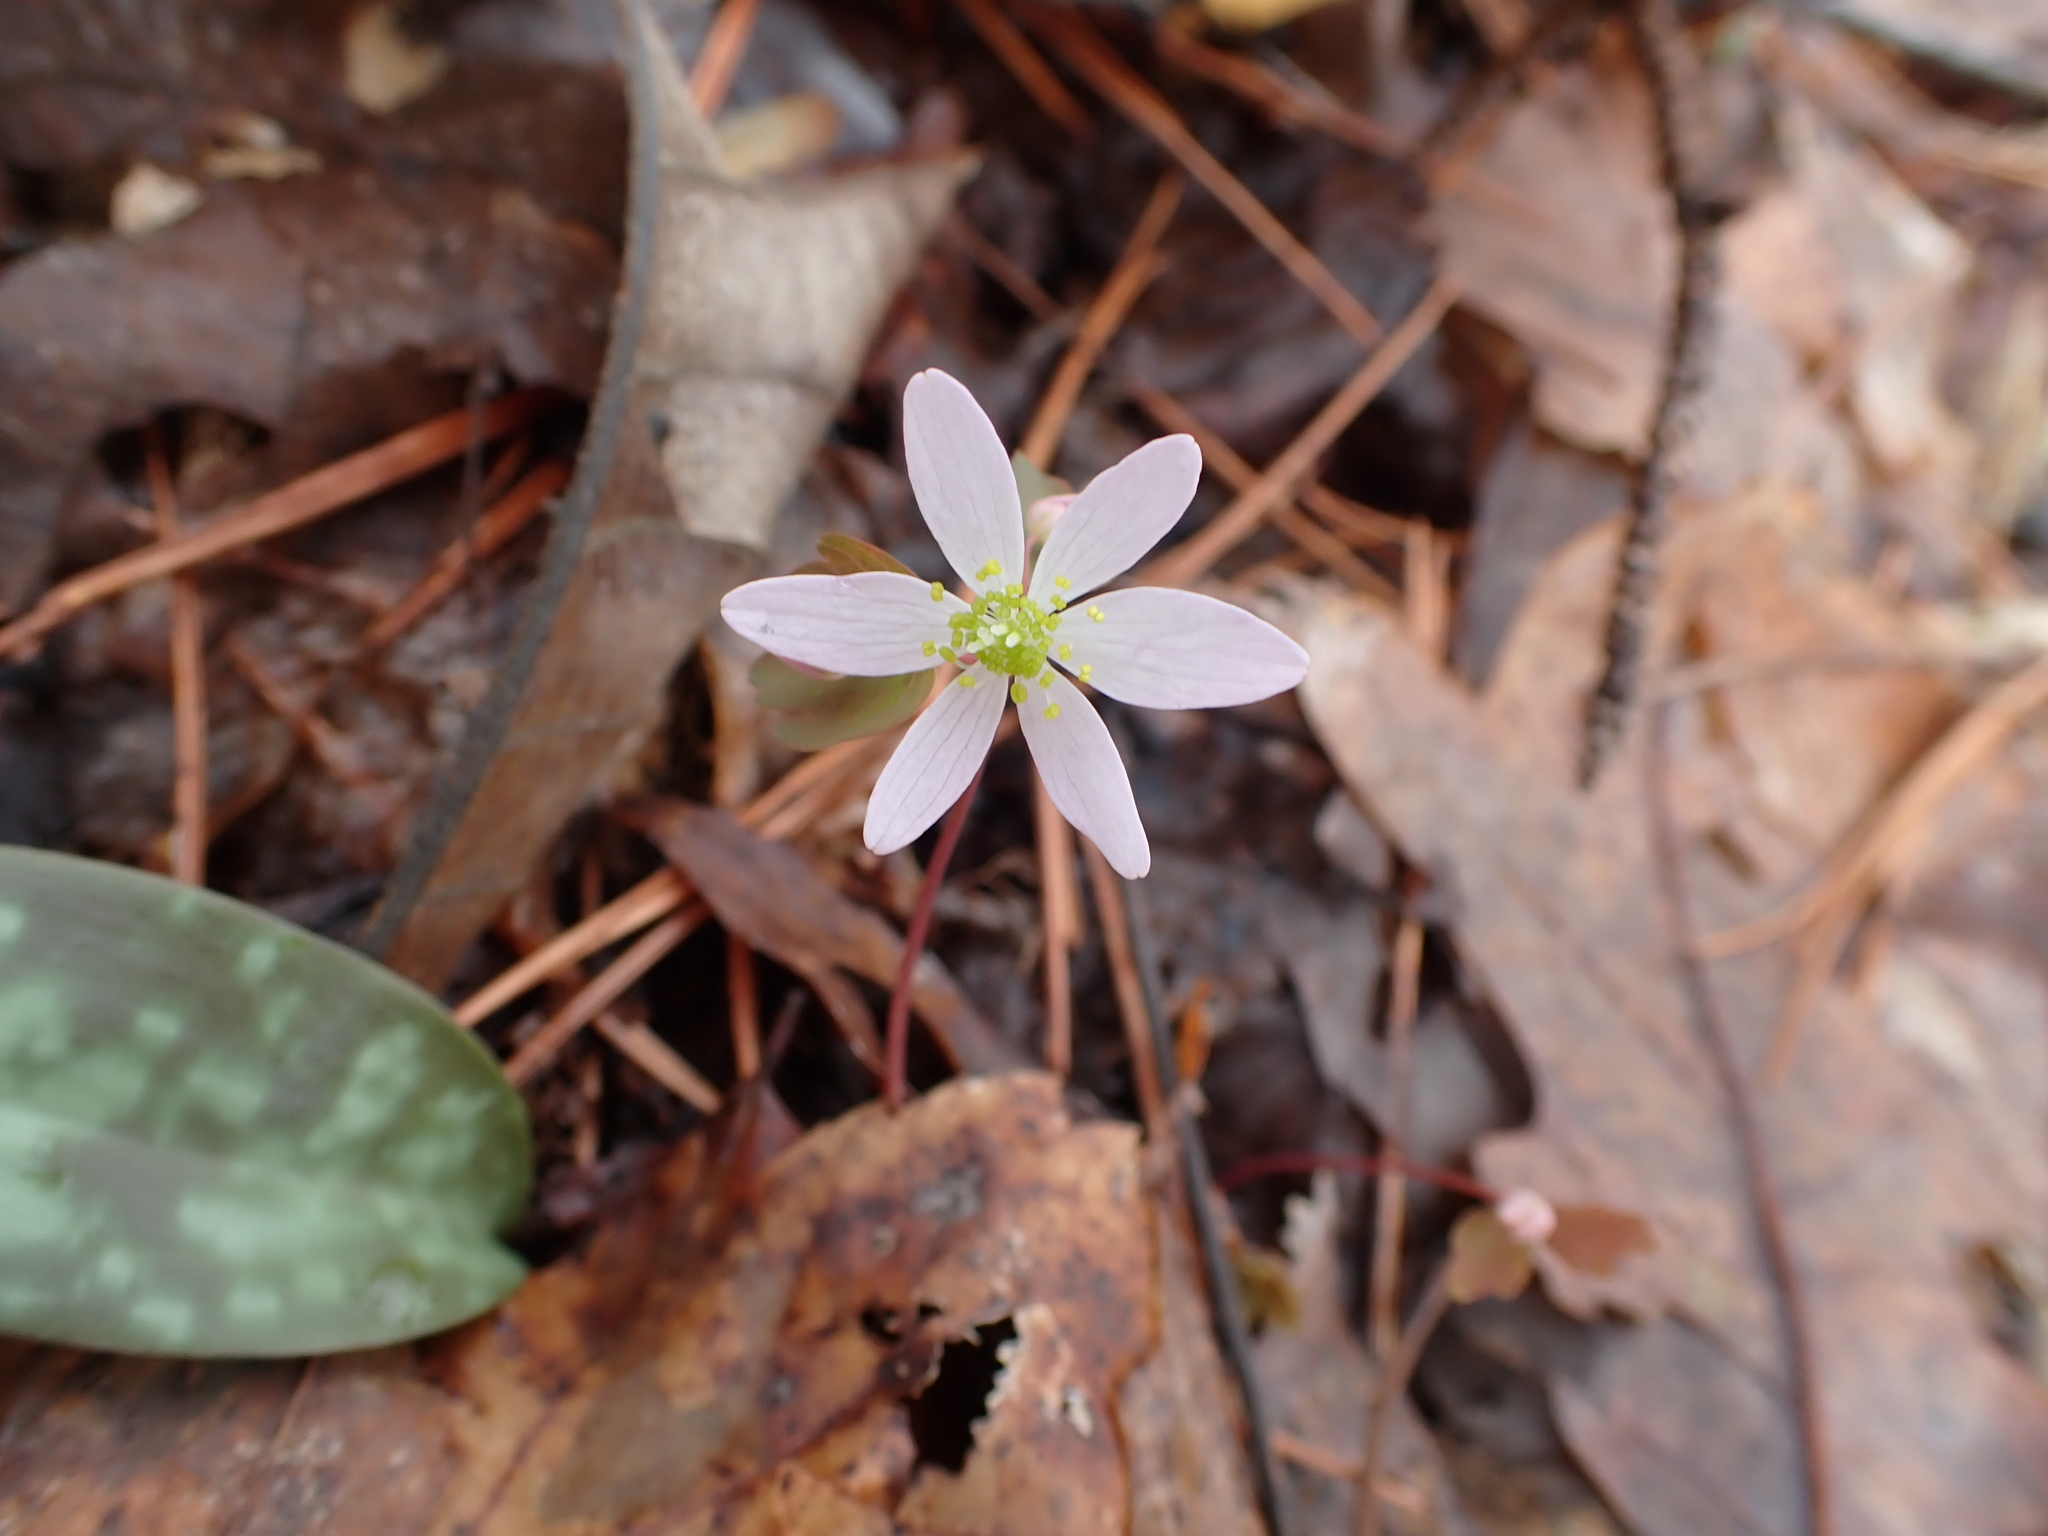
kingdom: Plantae
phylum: Tracheophyta
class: Magnoliopsida
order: Ranunculales
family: Ranunculaceae
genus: Thalictrum
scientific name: Thalictrum thalictroides
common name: Rue-anemone
